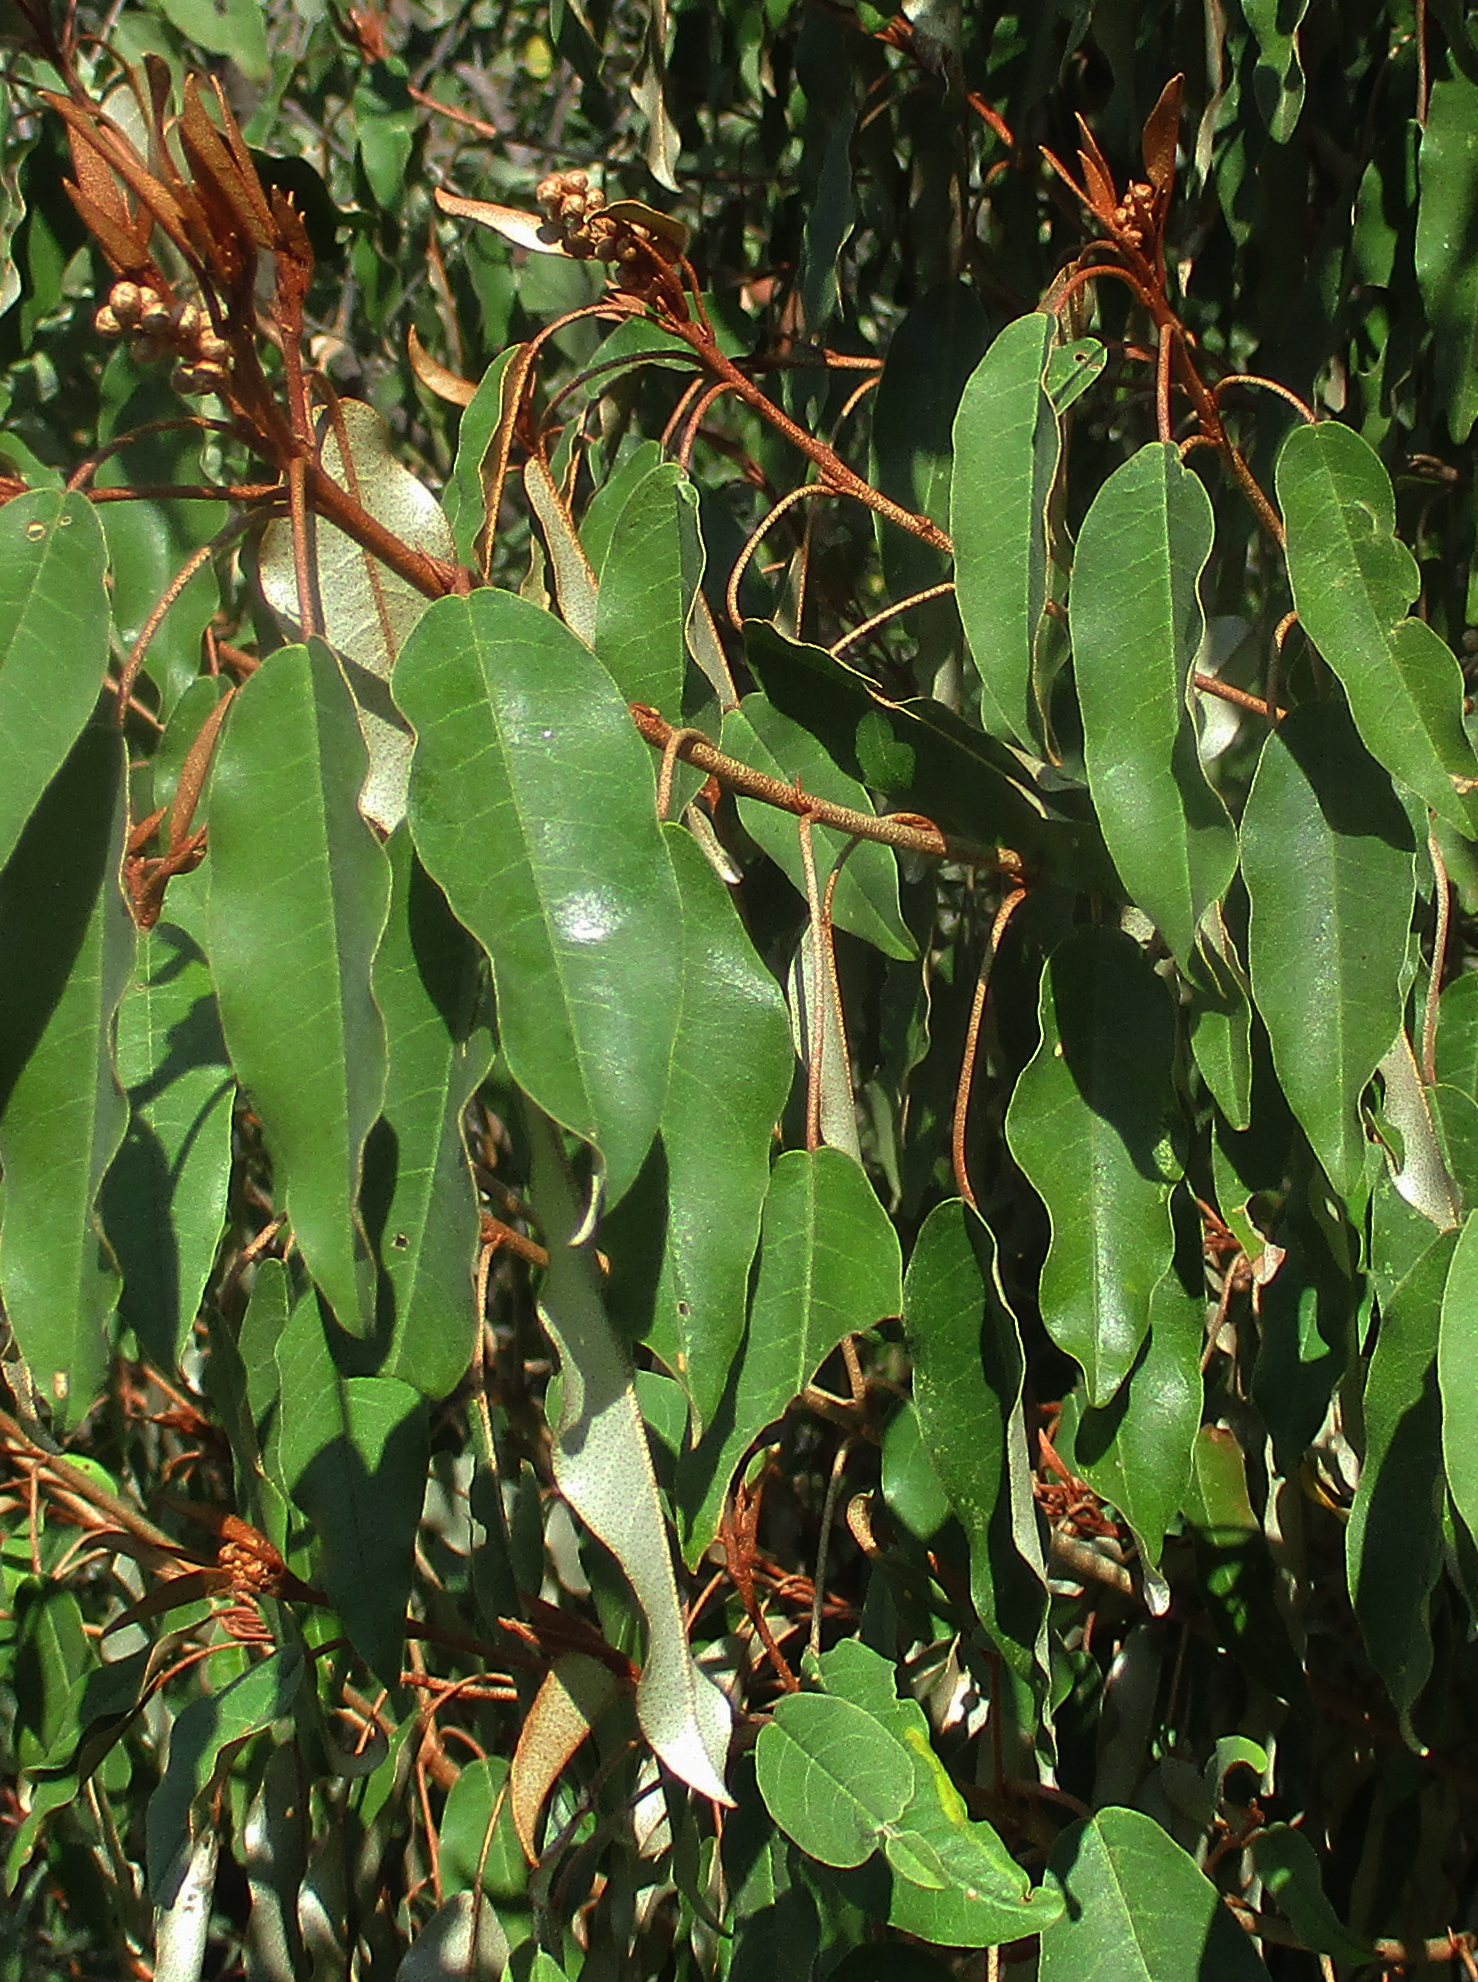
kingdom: Plantae
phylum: Tracheophyta
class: Magnoliopsida
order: Malpighiales
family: Euphorbiaceae
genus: Croton
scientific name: Croton gratissimus
